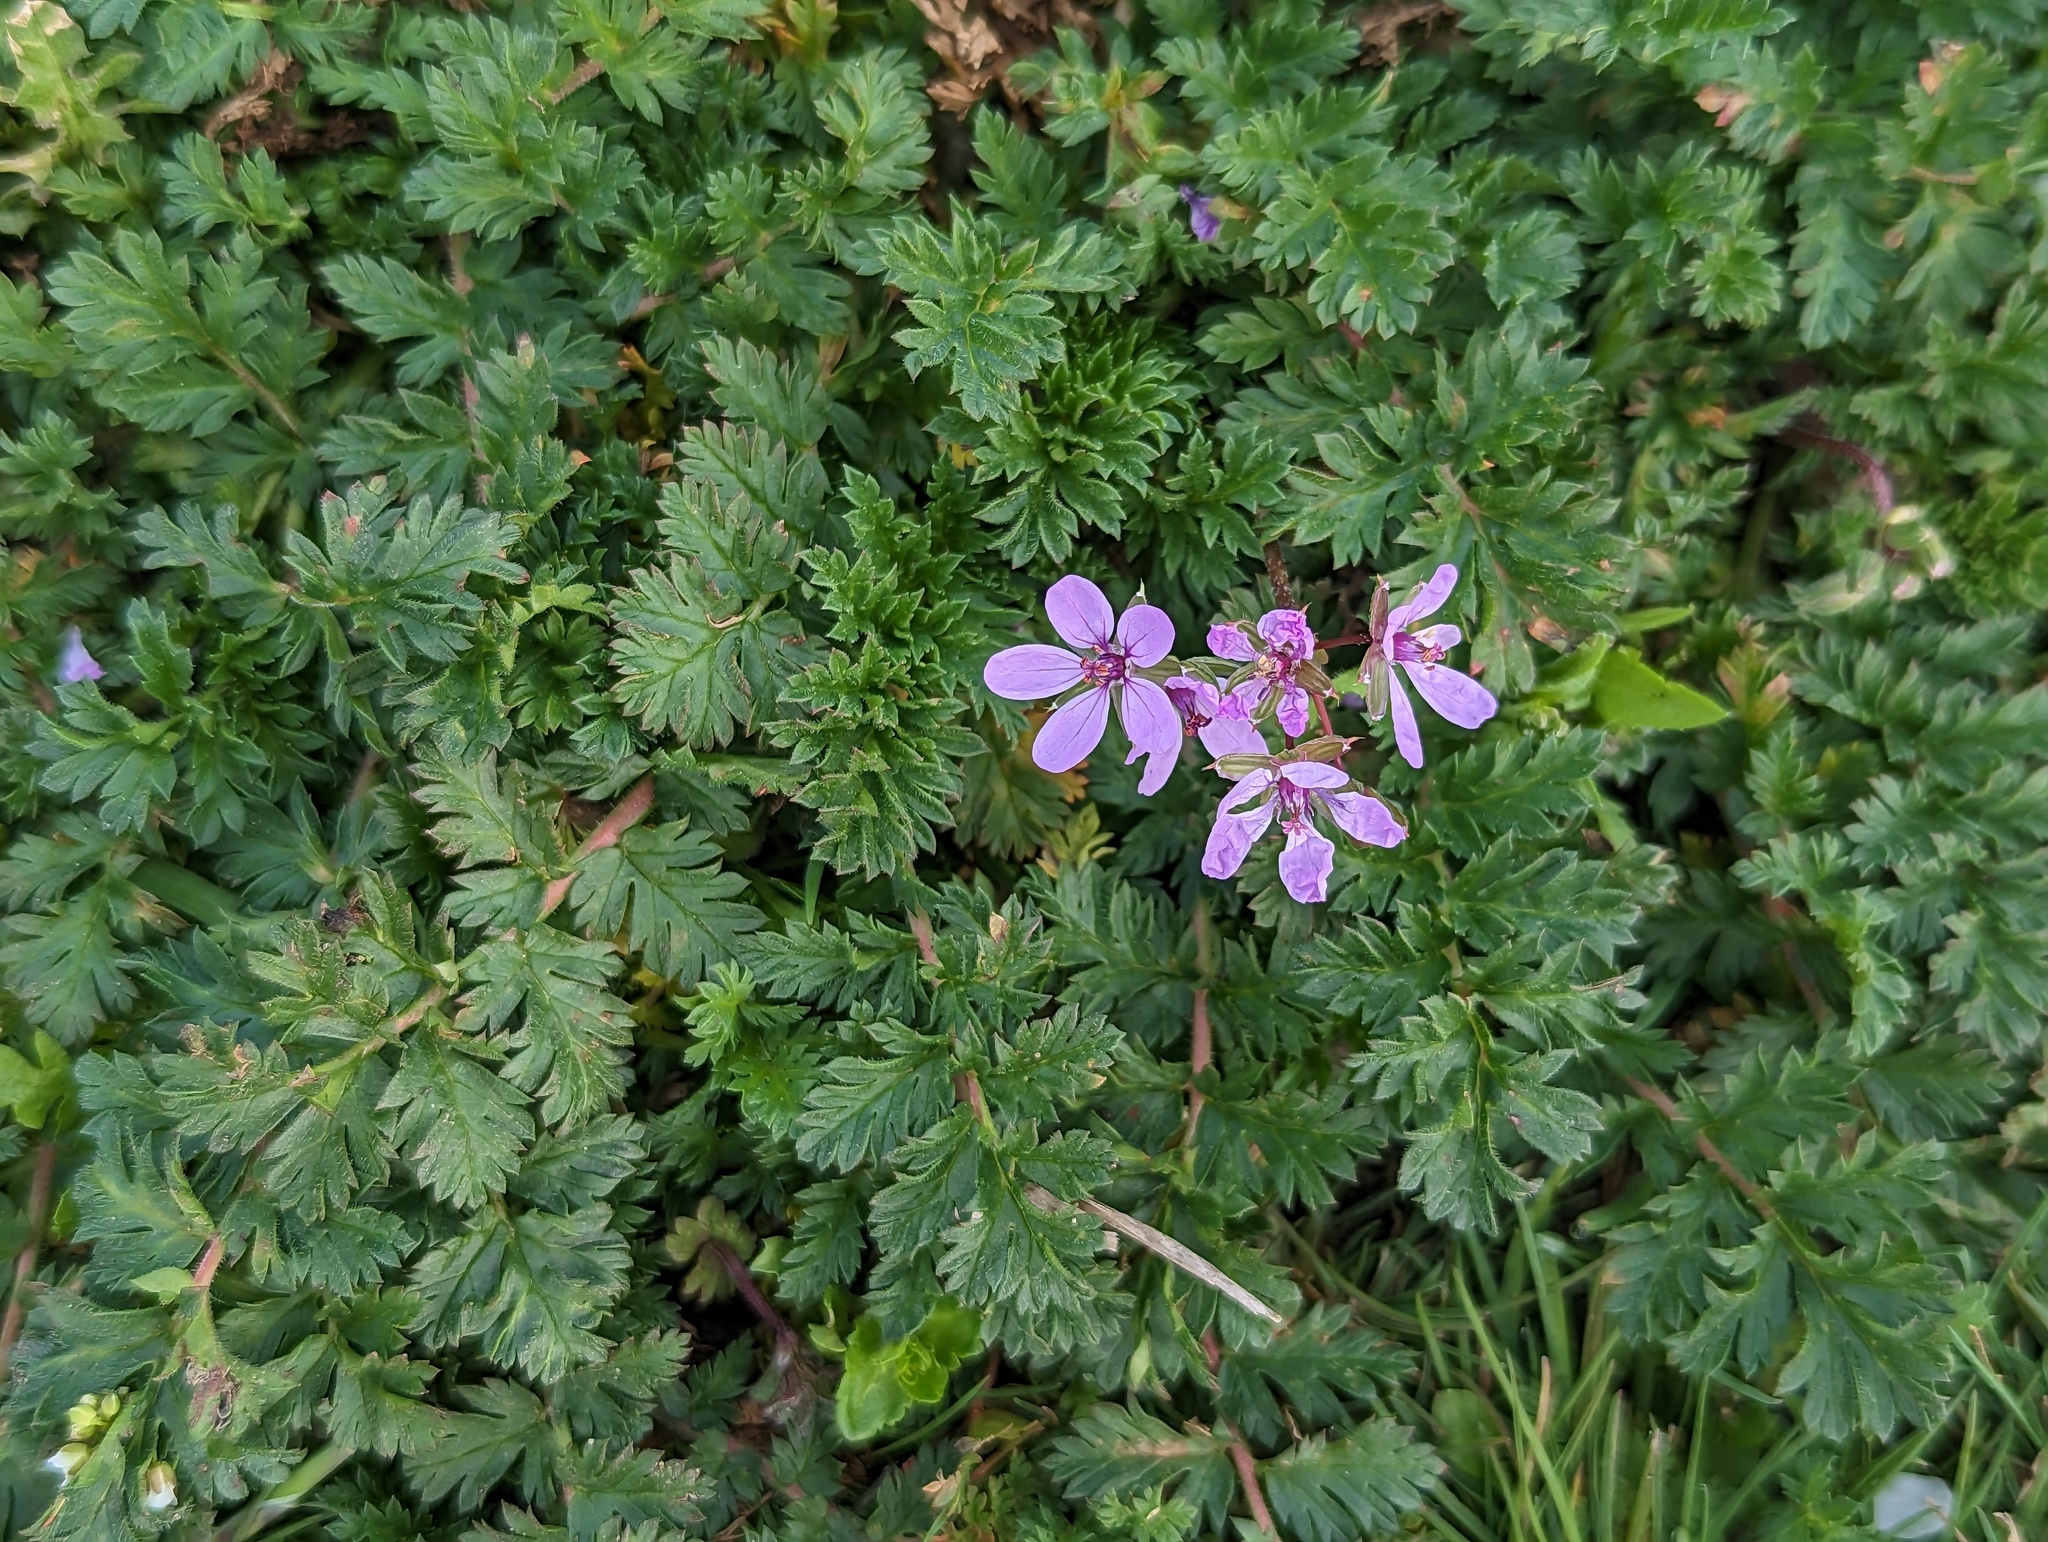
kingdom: Plantae
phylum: Tracheophyta
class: Magnoliopsida
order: Geraniales
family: Geraniaceae
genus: Erodium
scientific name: Erodium cicutarium
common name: Common stork's-bill
